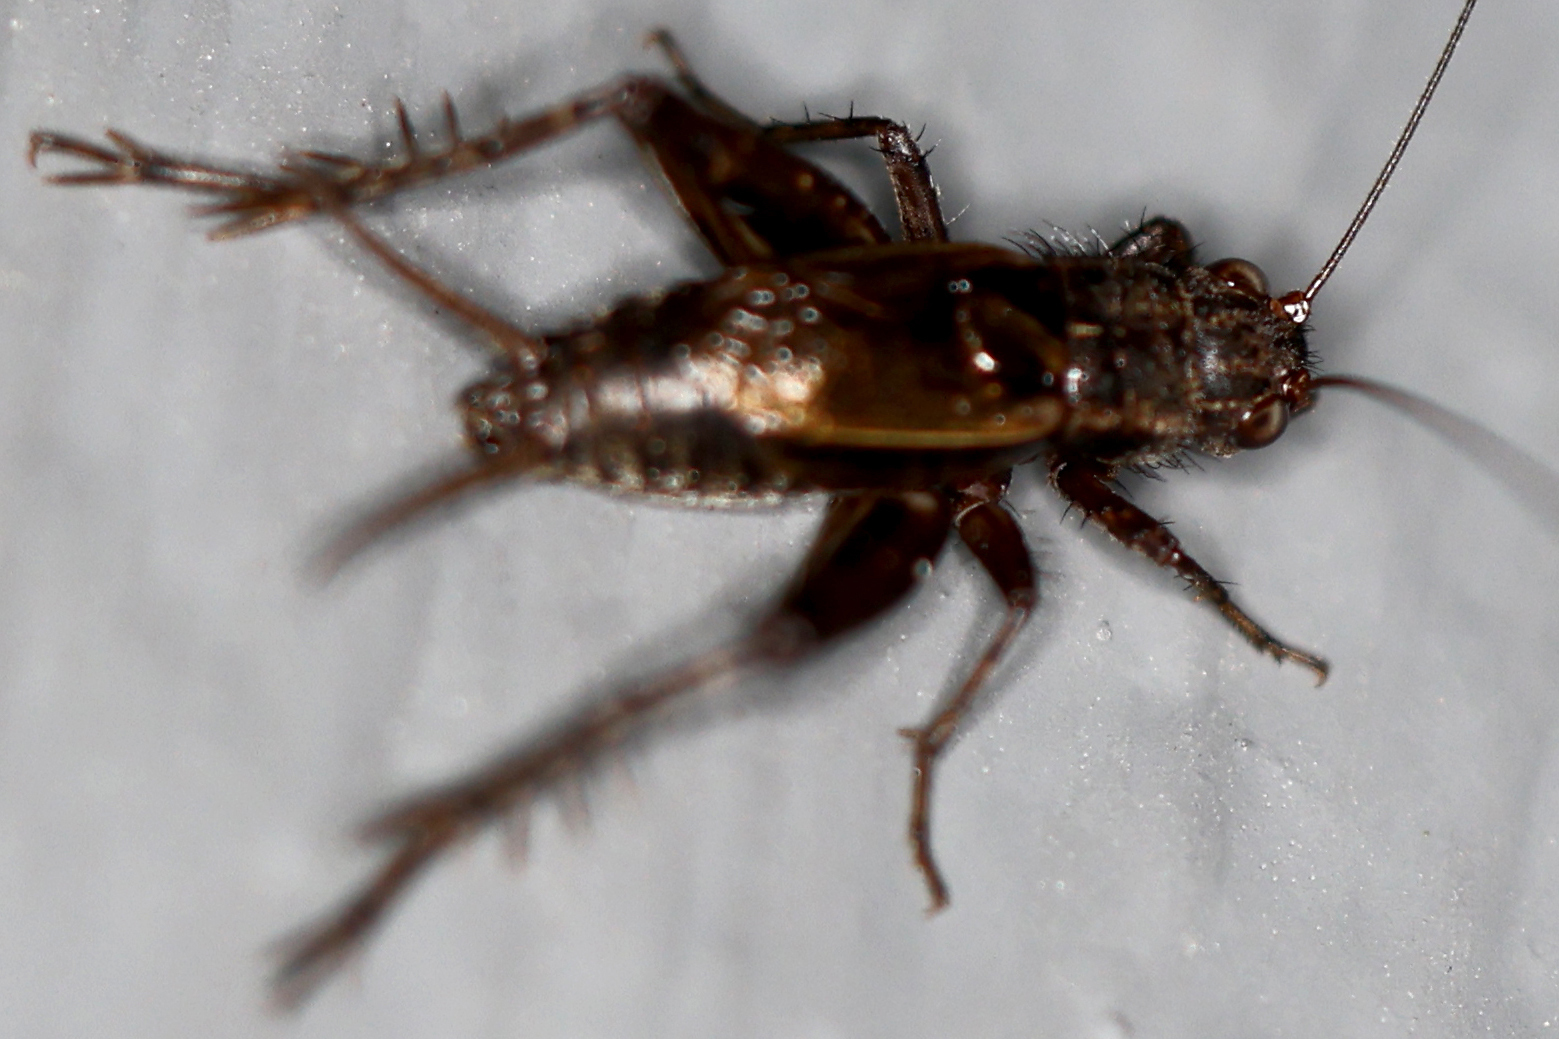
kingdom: Animalia
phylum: Arthropoda
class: Insecta
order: Orthoptera
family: Trigonidiidae
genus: Allonemobius
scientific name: Allonemobius
